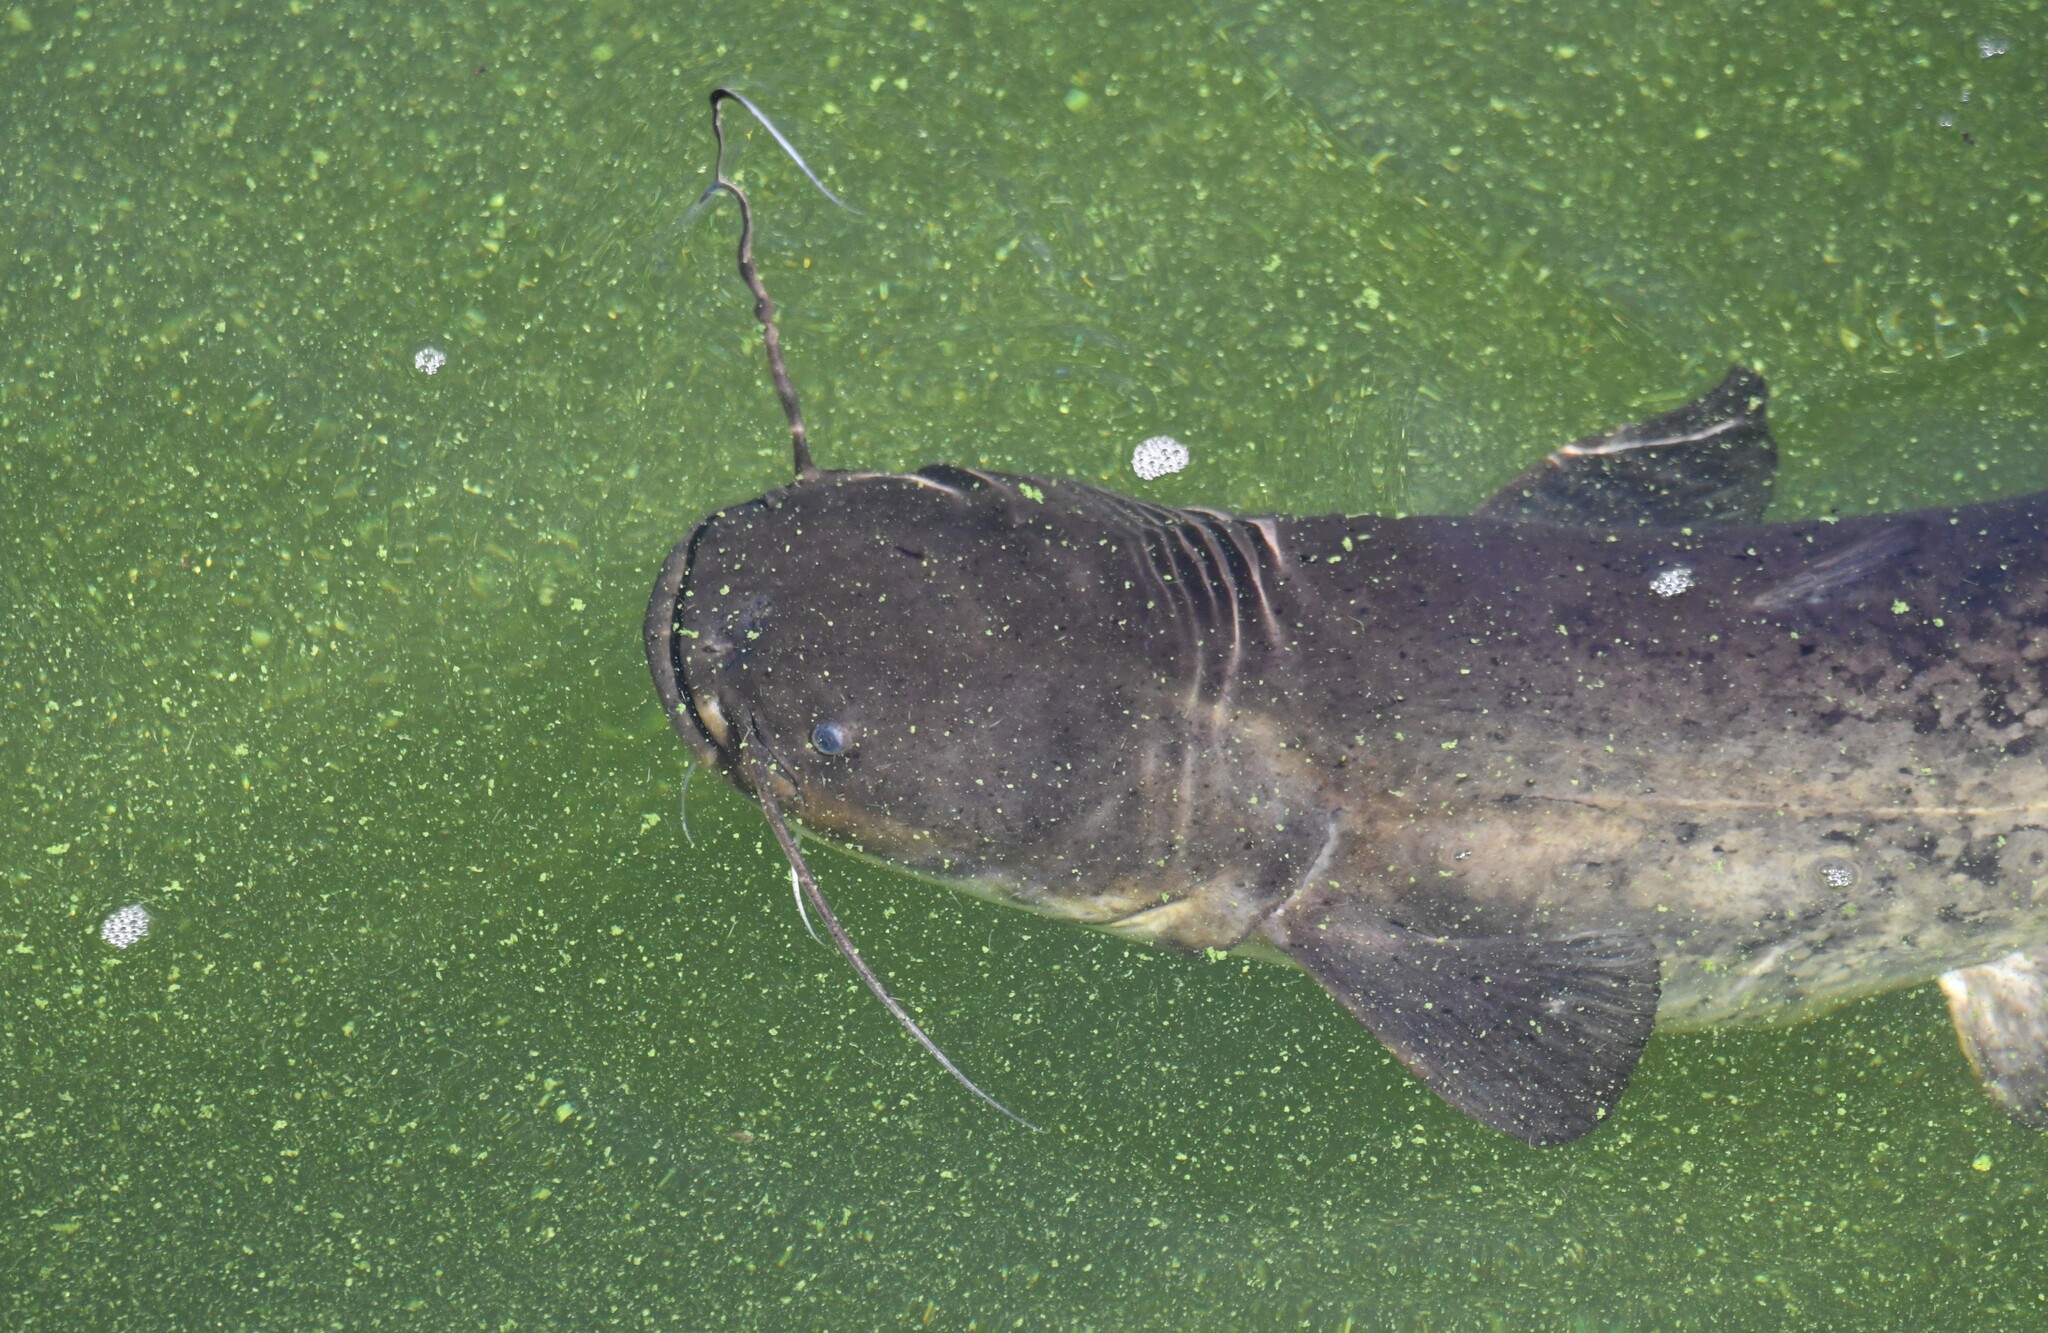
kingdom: Animalia
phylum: Chordata
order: Siluriformes
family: Siluridae
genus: Silurus
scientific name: Silurus glanis
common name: Wels
